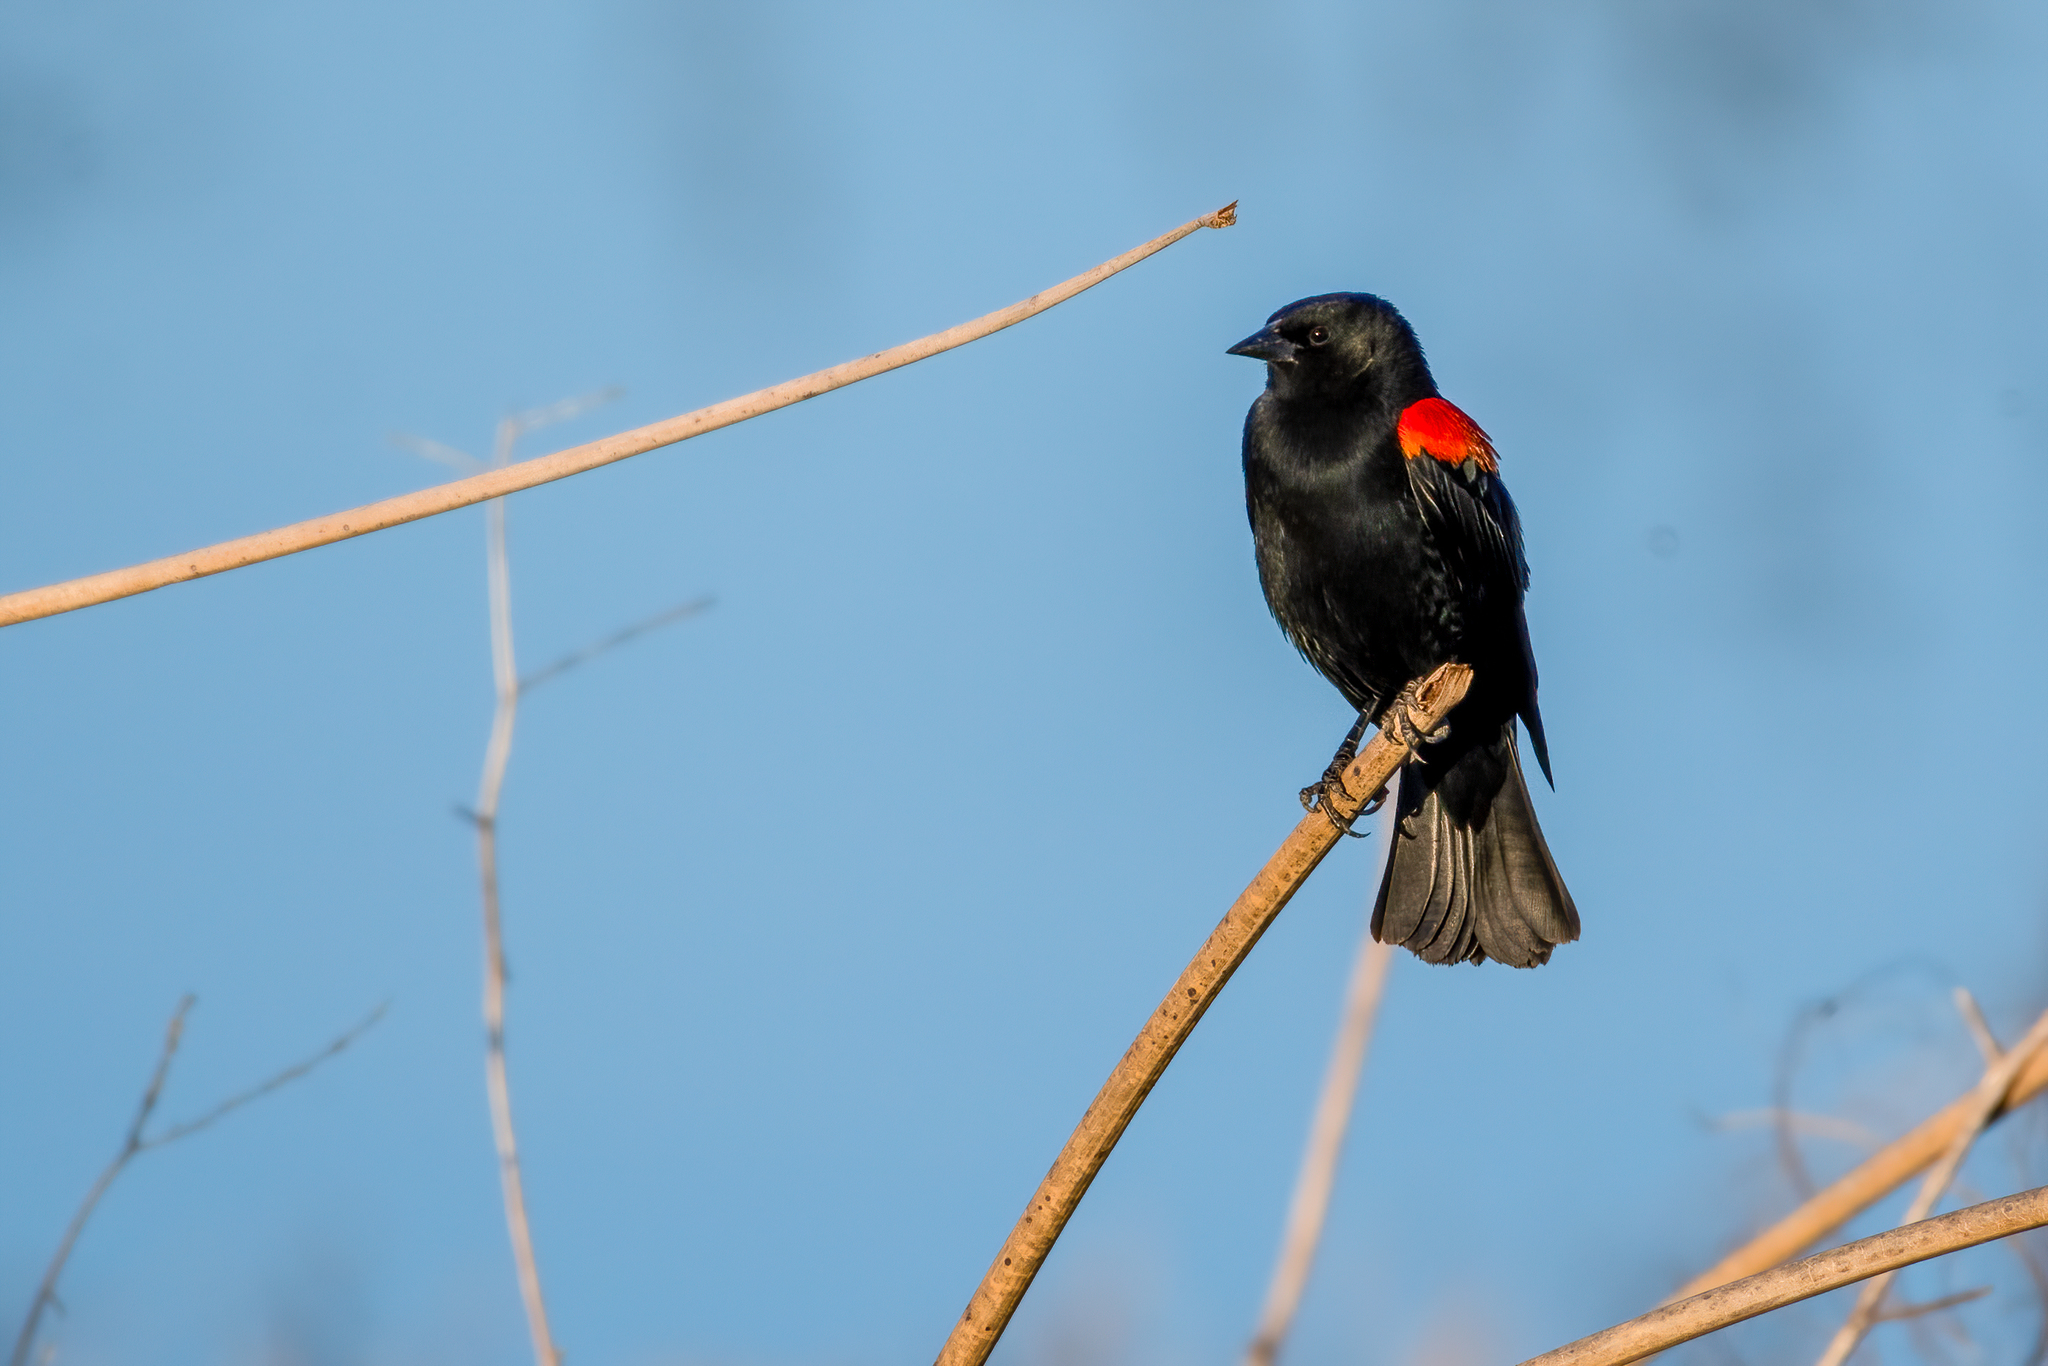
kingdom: Animalia
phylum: Chordata
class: Aves
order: Passeriformes
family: Icteridae
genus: Agelaius
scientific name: Agelaius phoeniceus
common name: Red-winged blackbird
